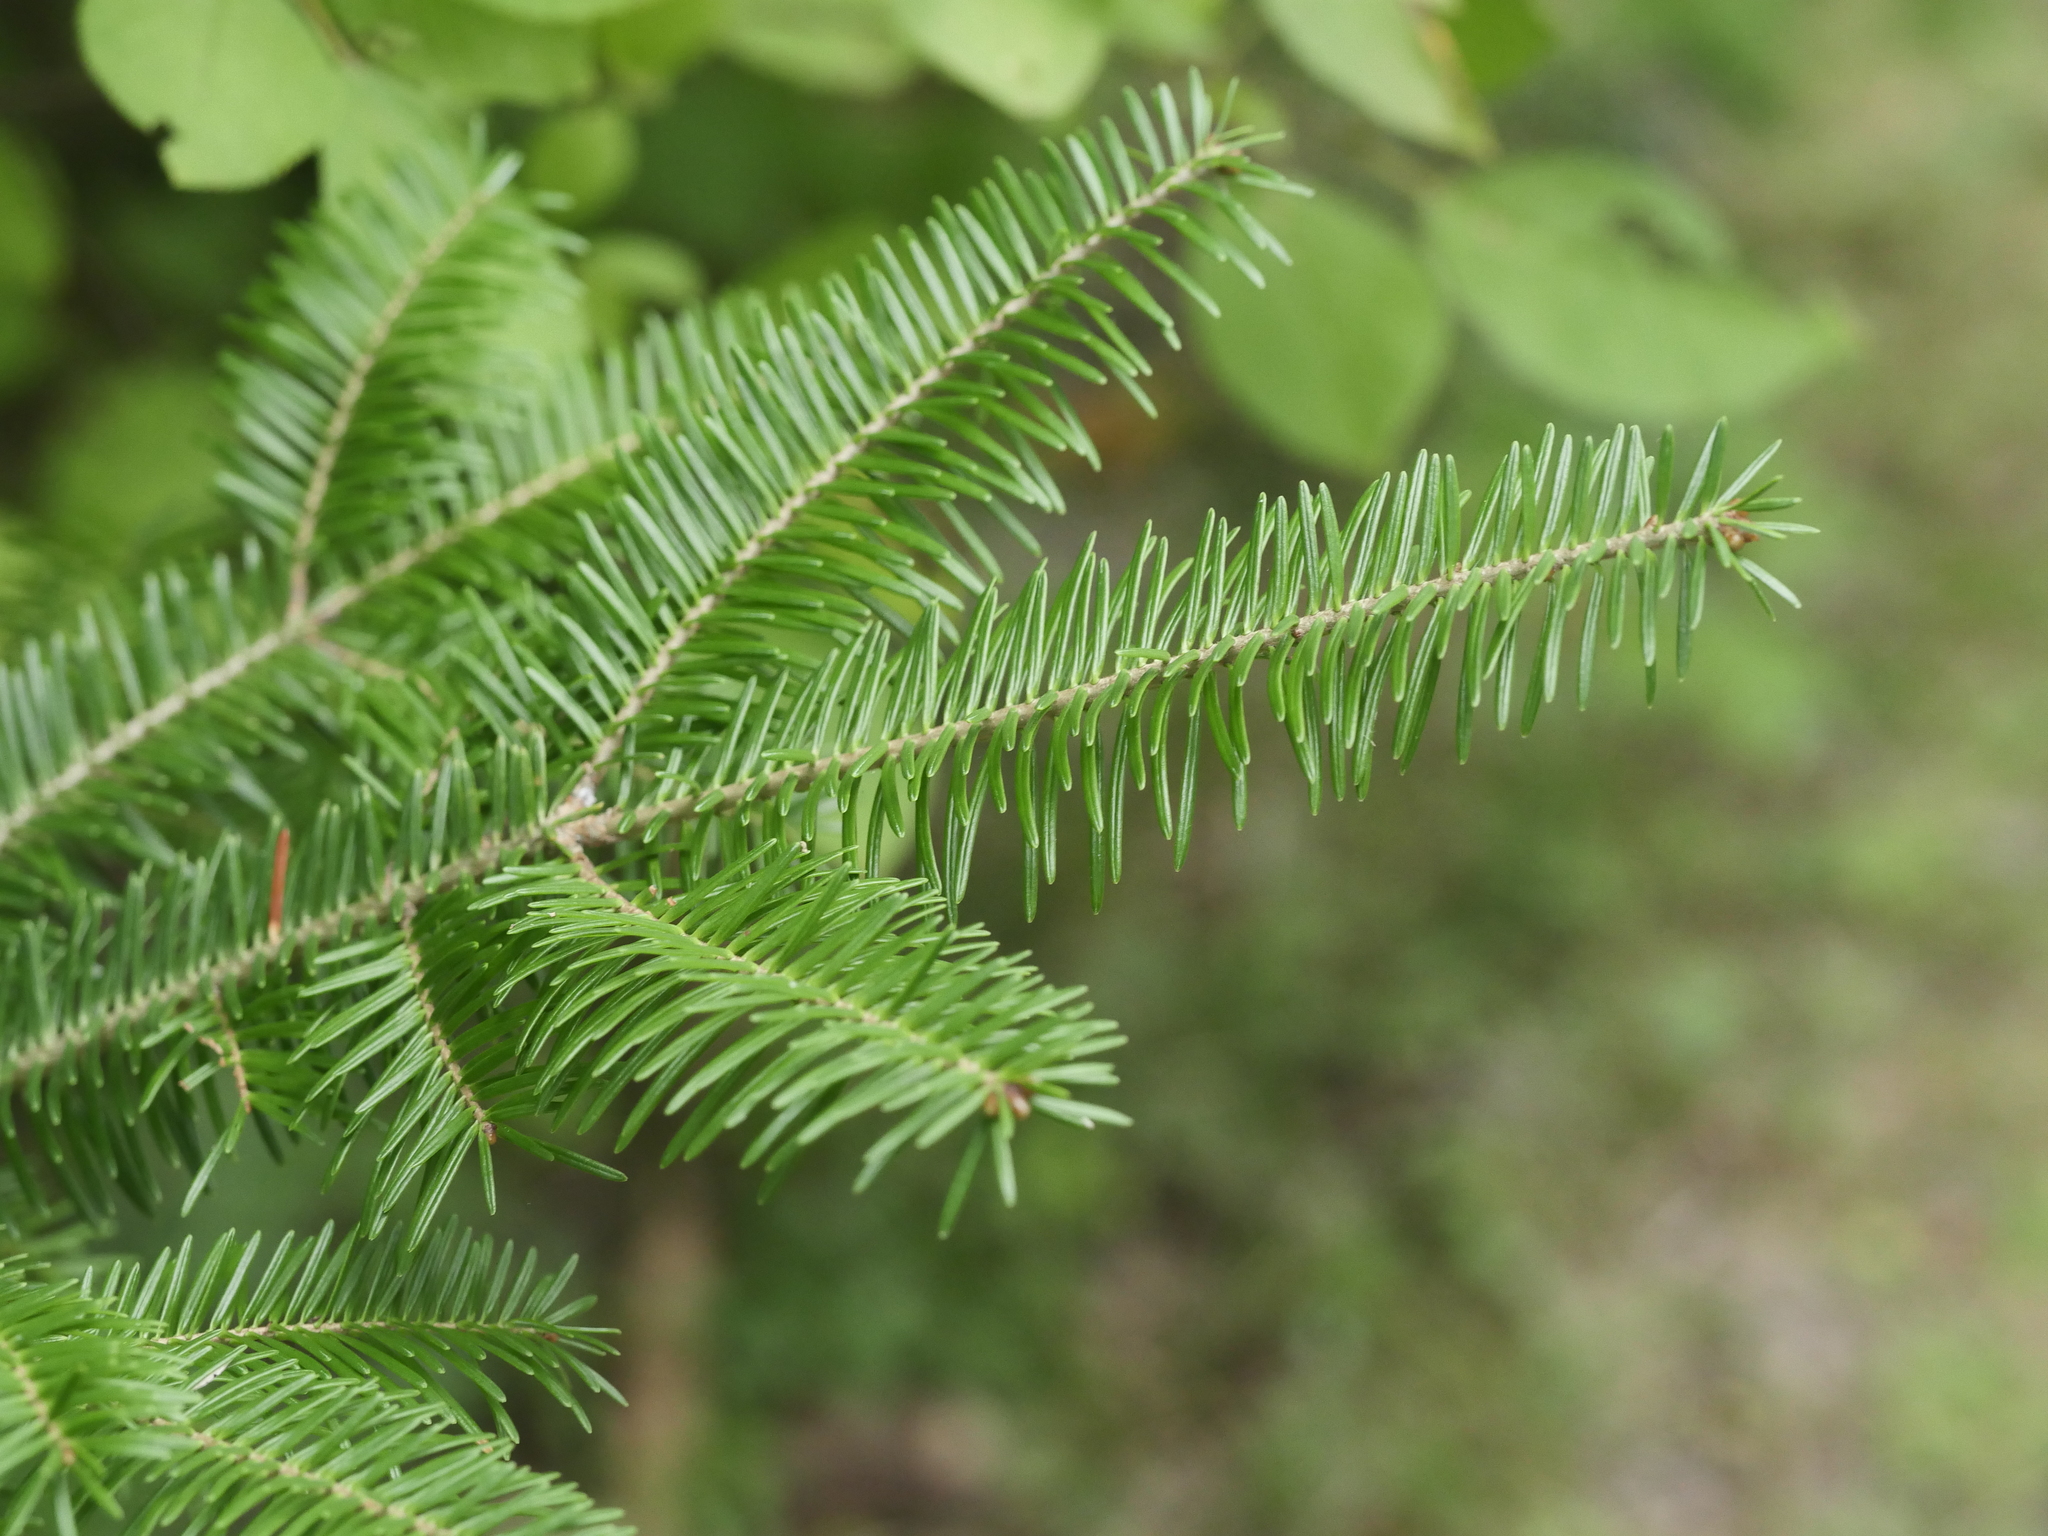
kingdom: Plantae
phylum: Tracheophyta
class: Pinopsida
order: Pinales
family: Pinaceae
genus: Abies
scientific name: Abies balsamea
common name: Balsam fir
